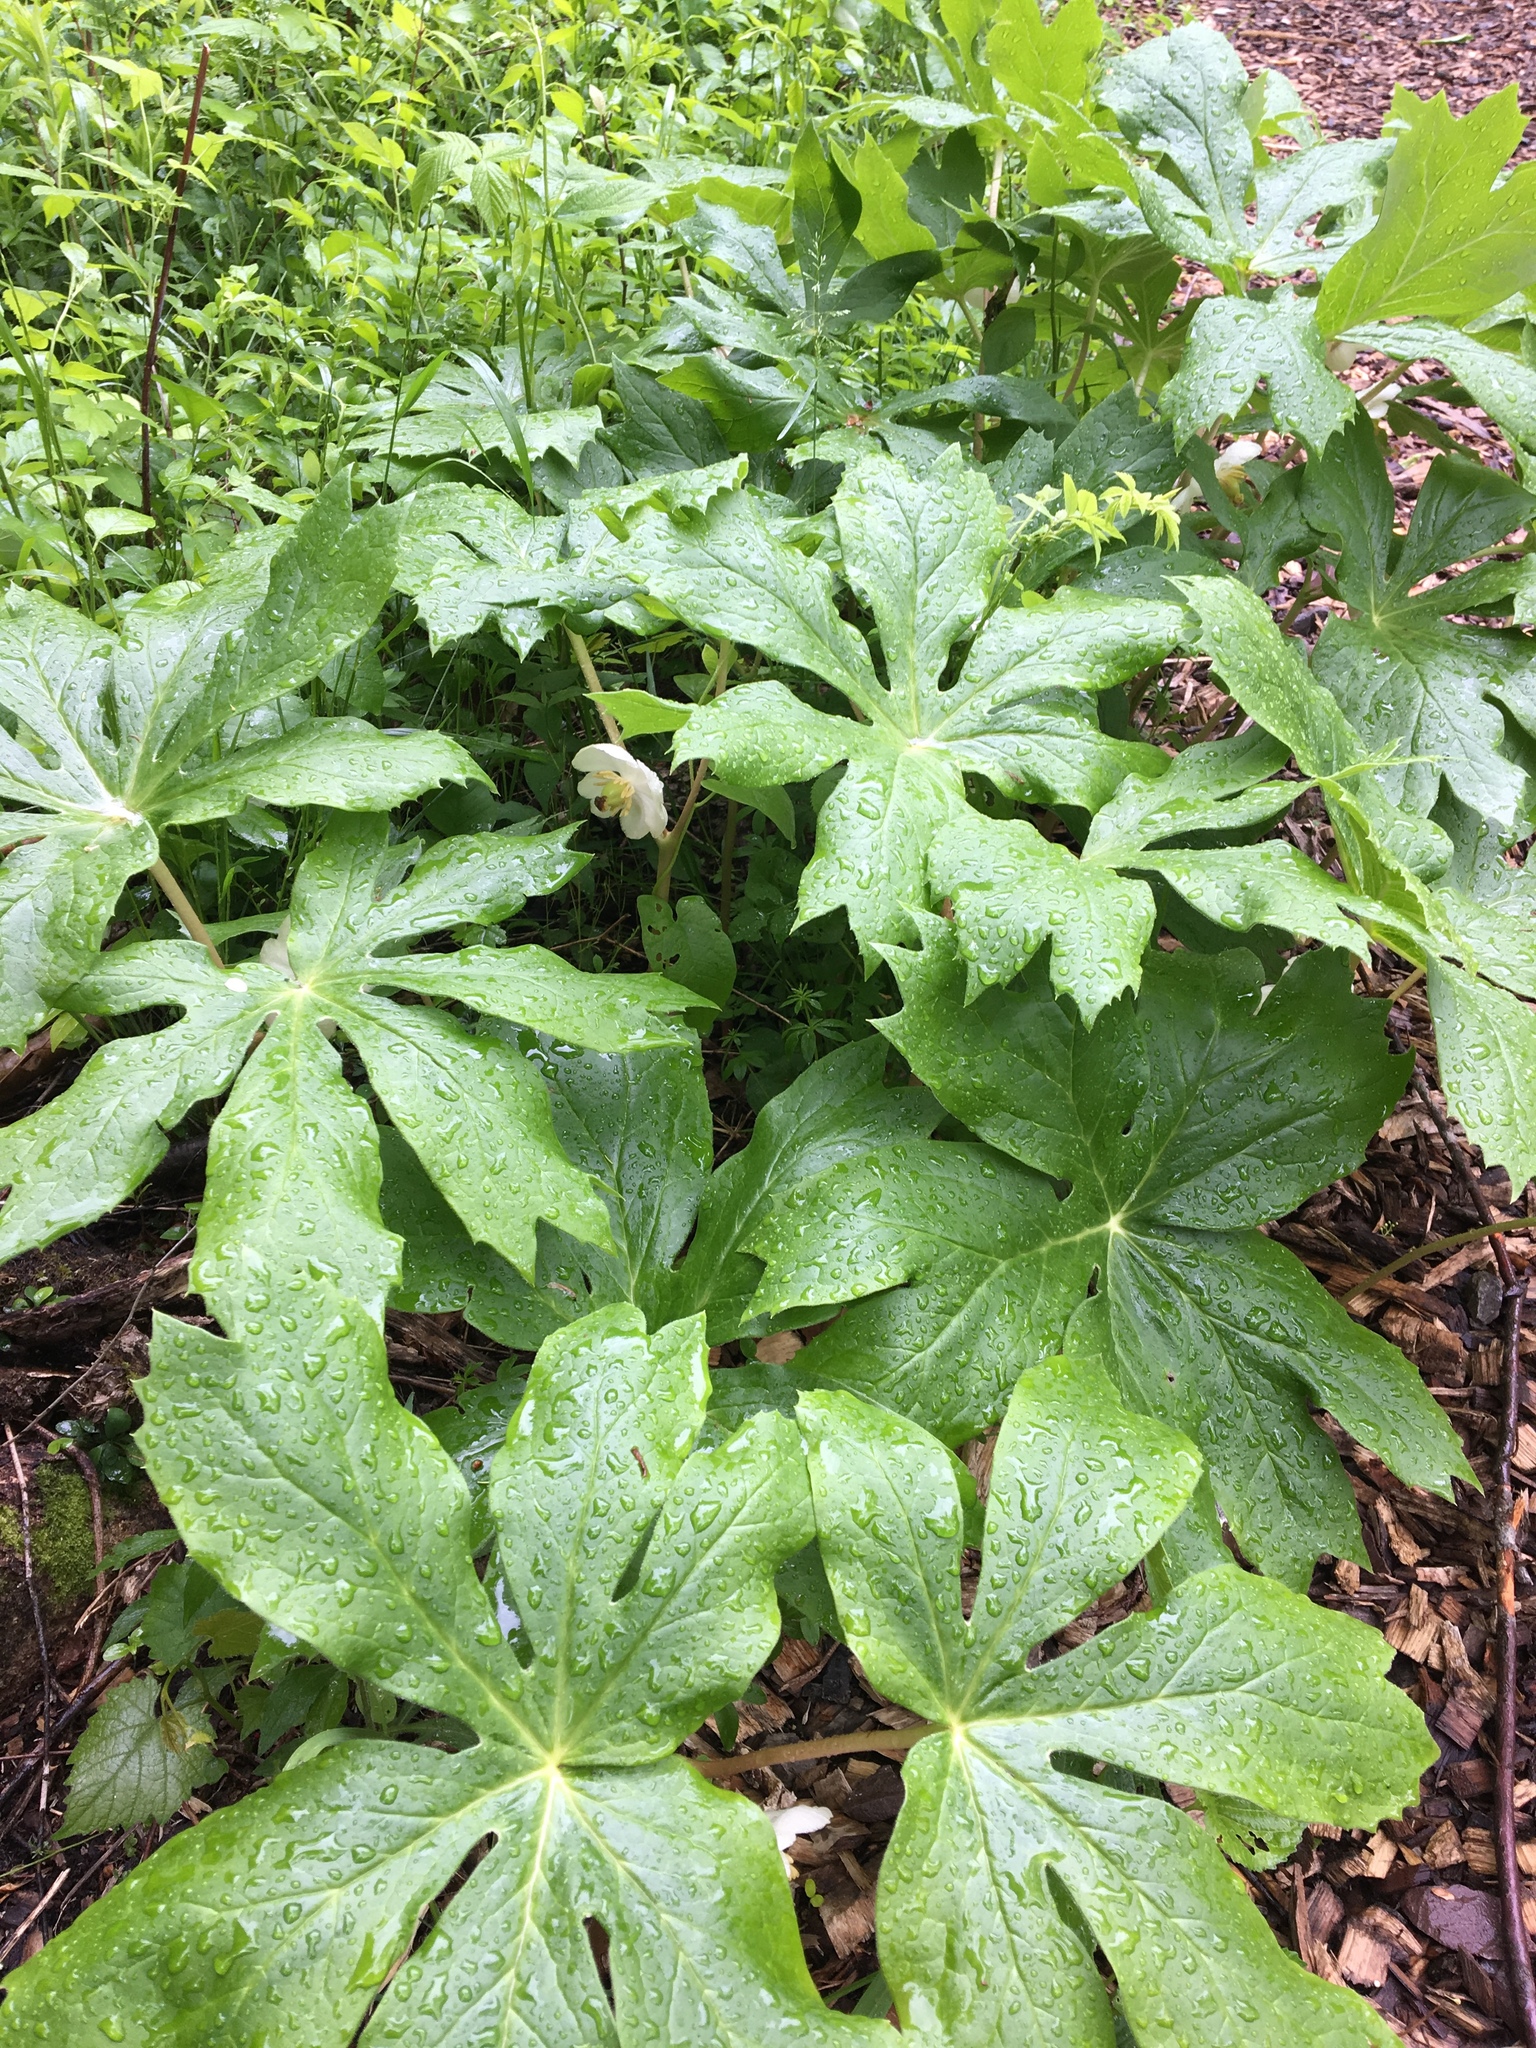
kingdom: Plantae
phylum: Tracheophyta
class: Magnoliopsida
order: Ranunculales
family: Berberidaceae
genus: Podophyllum
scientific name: Podophyllum peltatum
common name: Wild mandrake
